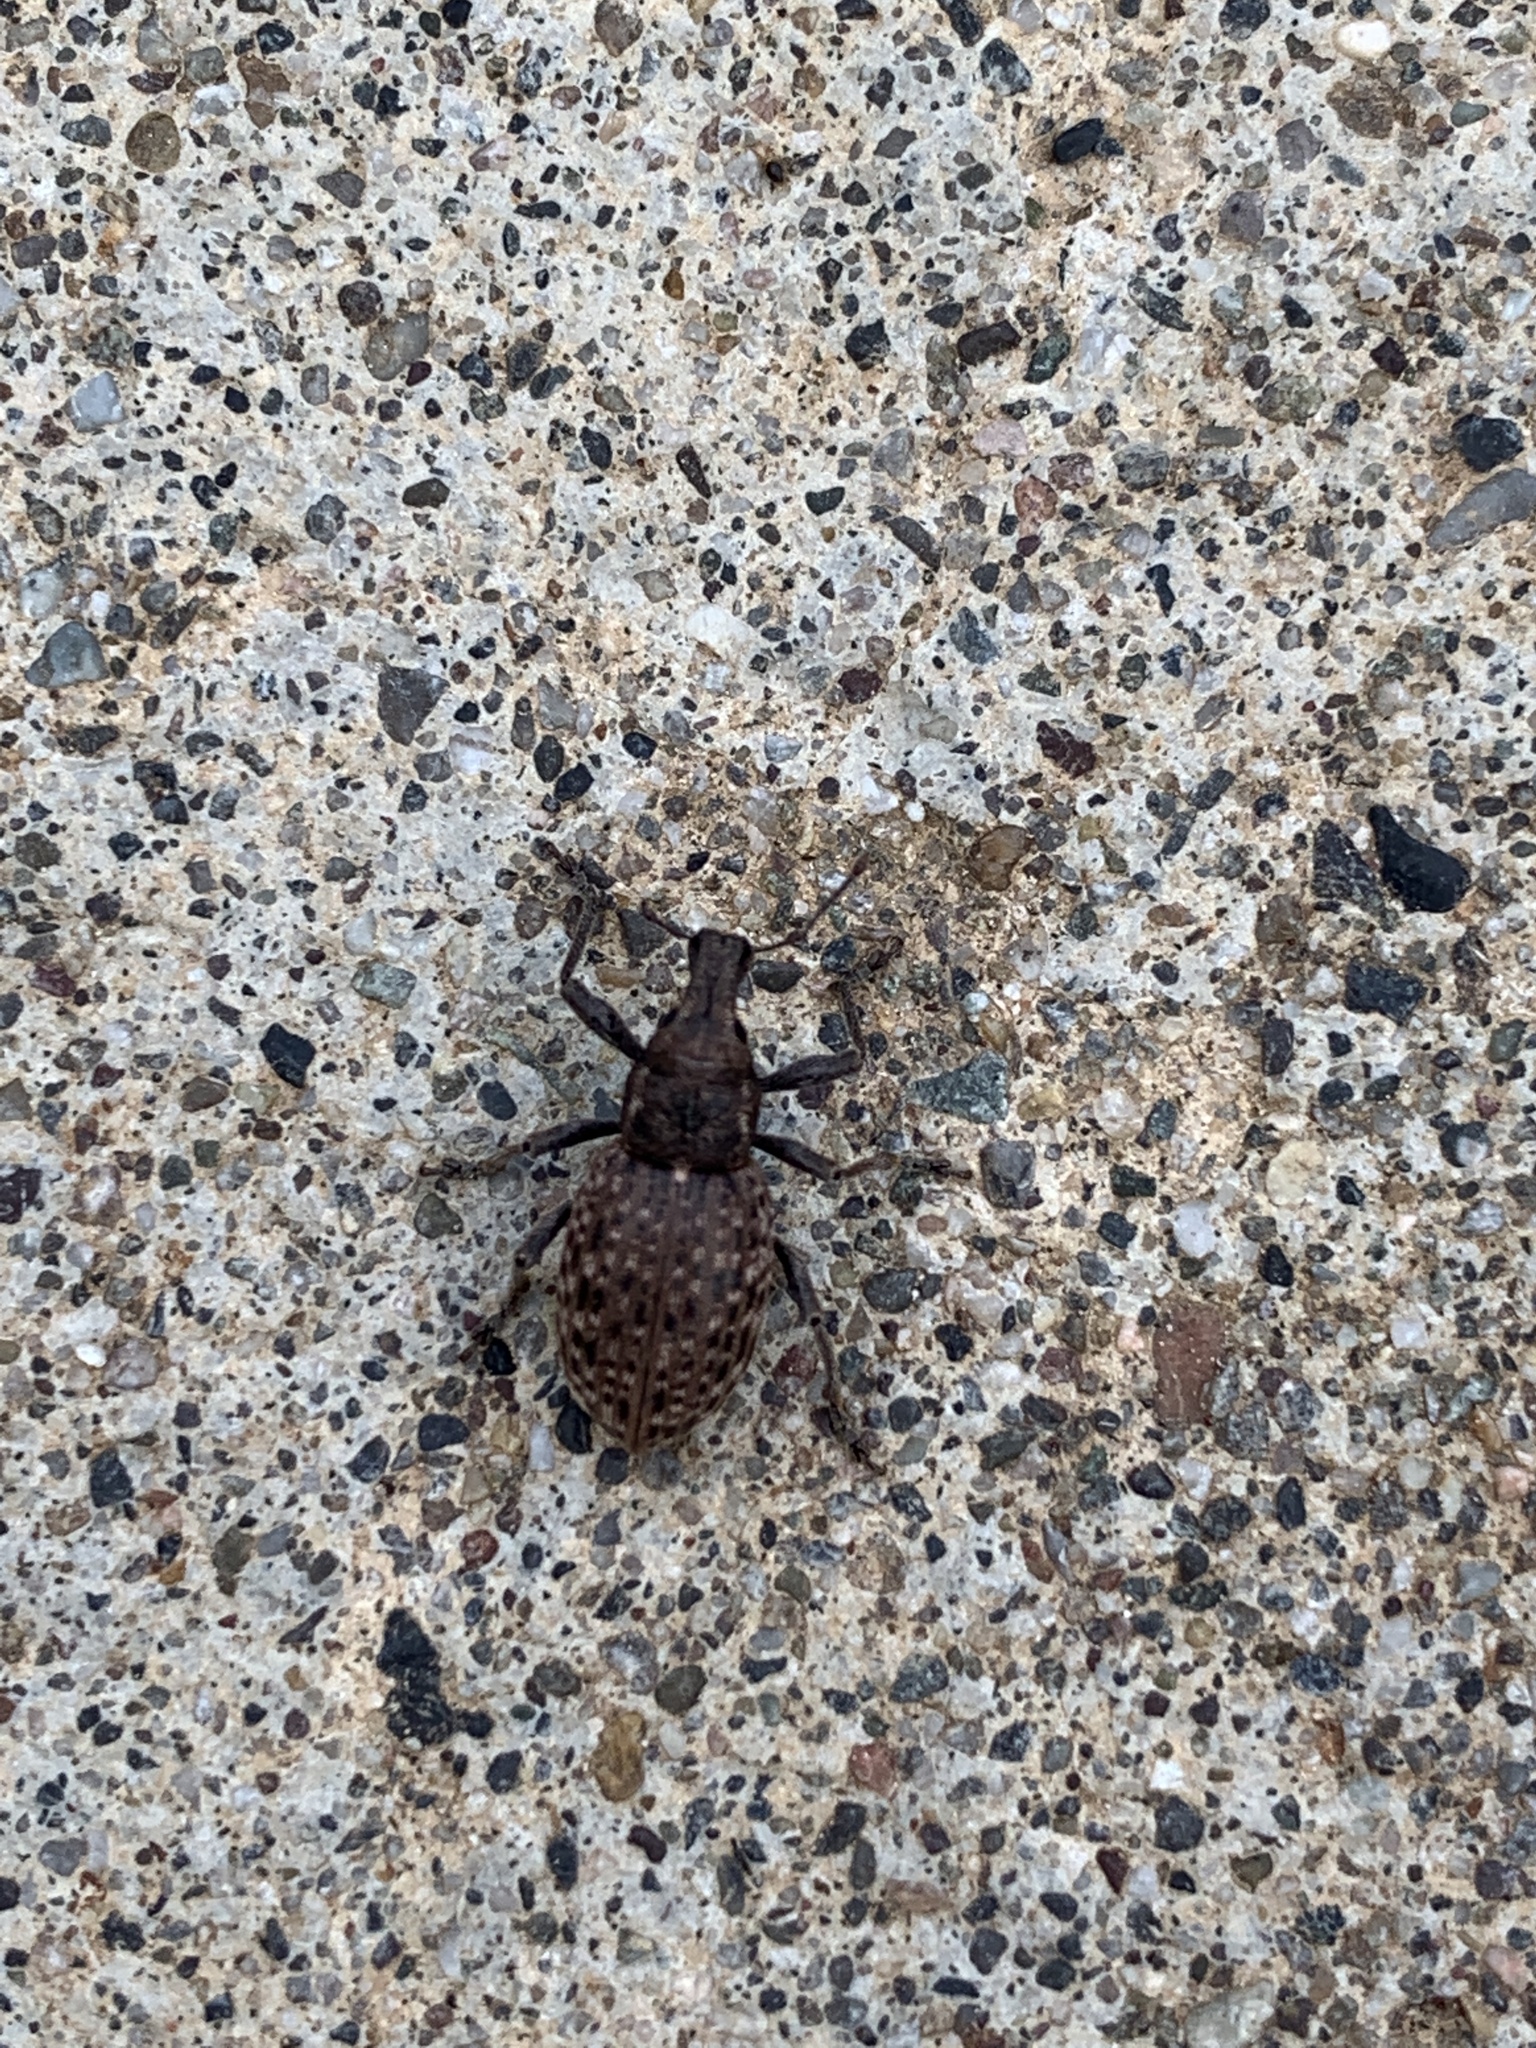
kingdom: Animalia
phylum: Arthropoda
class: Insecta
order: Coleoptera
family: Curculionidae
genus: Trichalophus
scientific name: Trichalophus didymus
